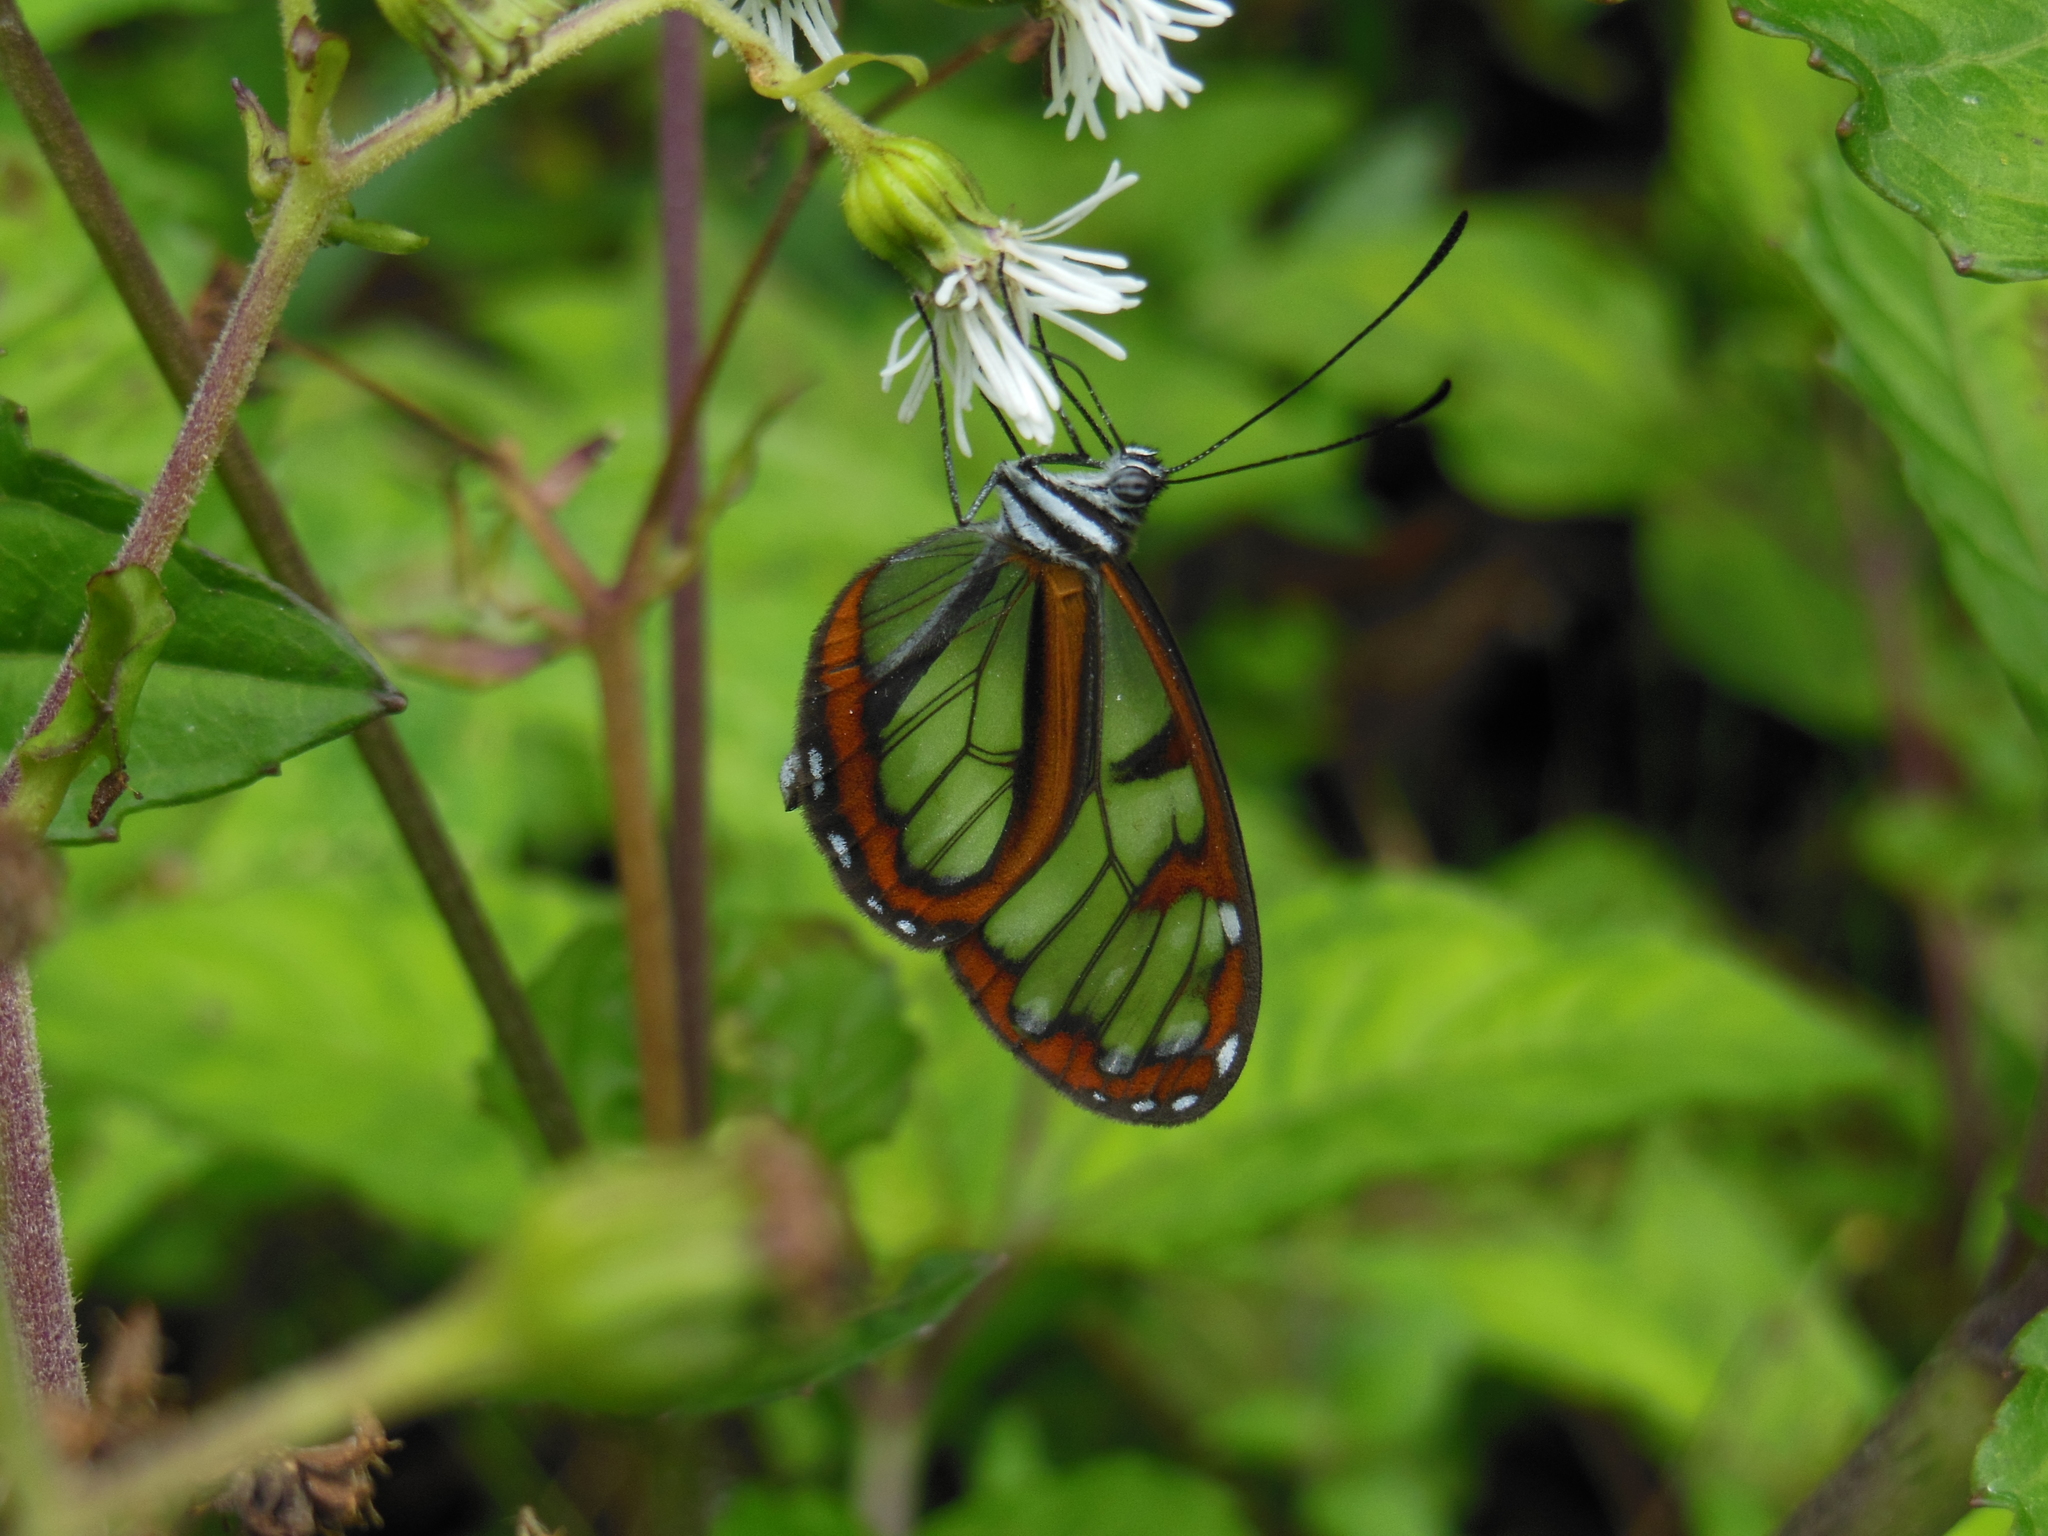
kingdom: Animalia
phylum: Arthropoda
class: Insecta
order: Lepidoptera
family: Nymphalidae
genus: Oleria
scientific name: Oleria tremona
